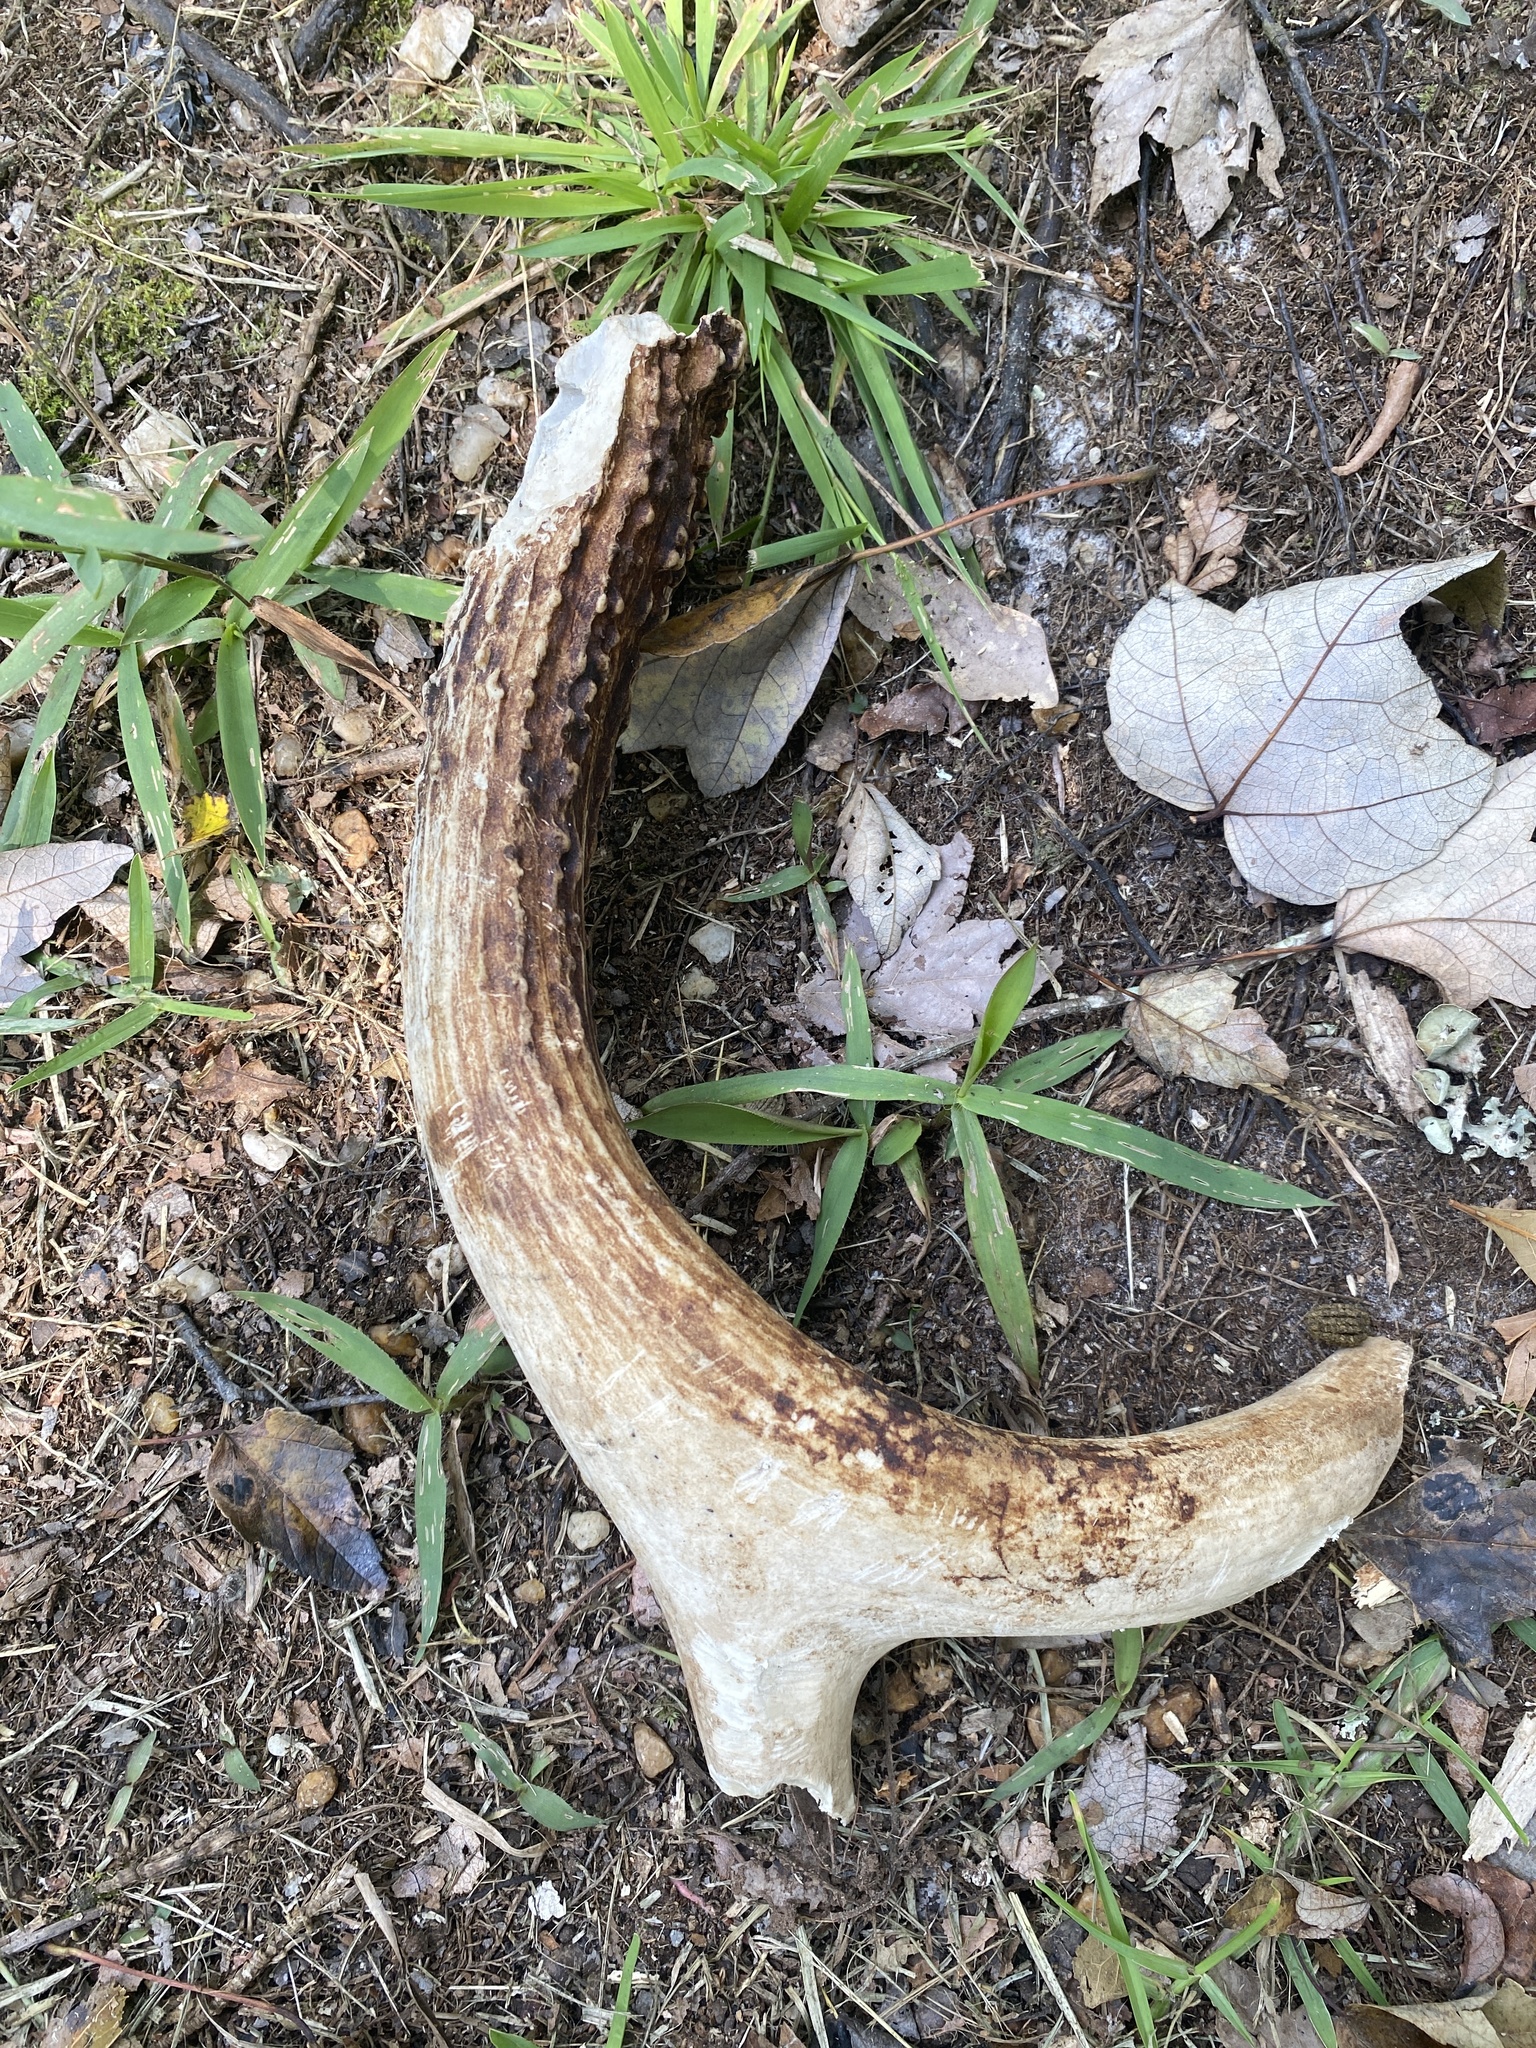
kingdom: Animalia
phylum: Chordata
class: Mammalia
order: Artiodactyla
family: Cervidae
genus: Odocoileus
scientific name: Odocoileus virginianus
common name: White-tailed deer
